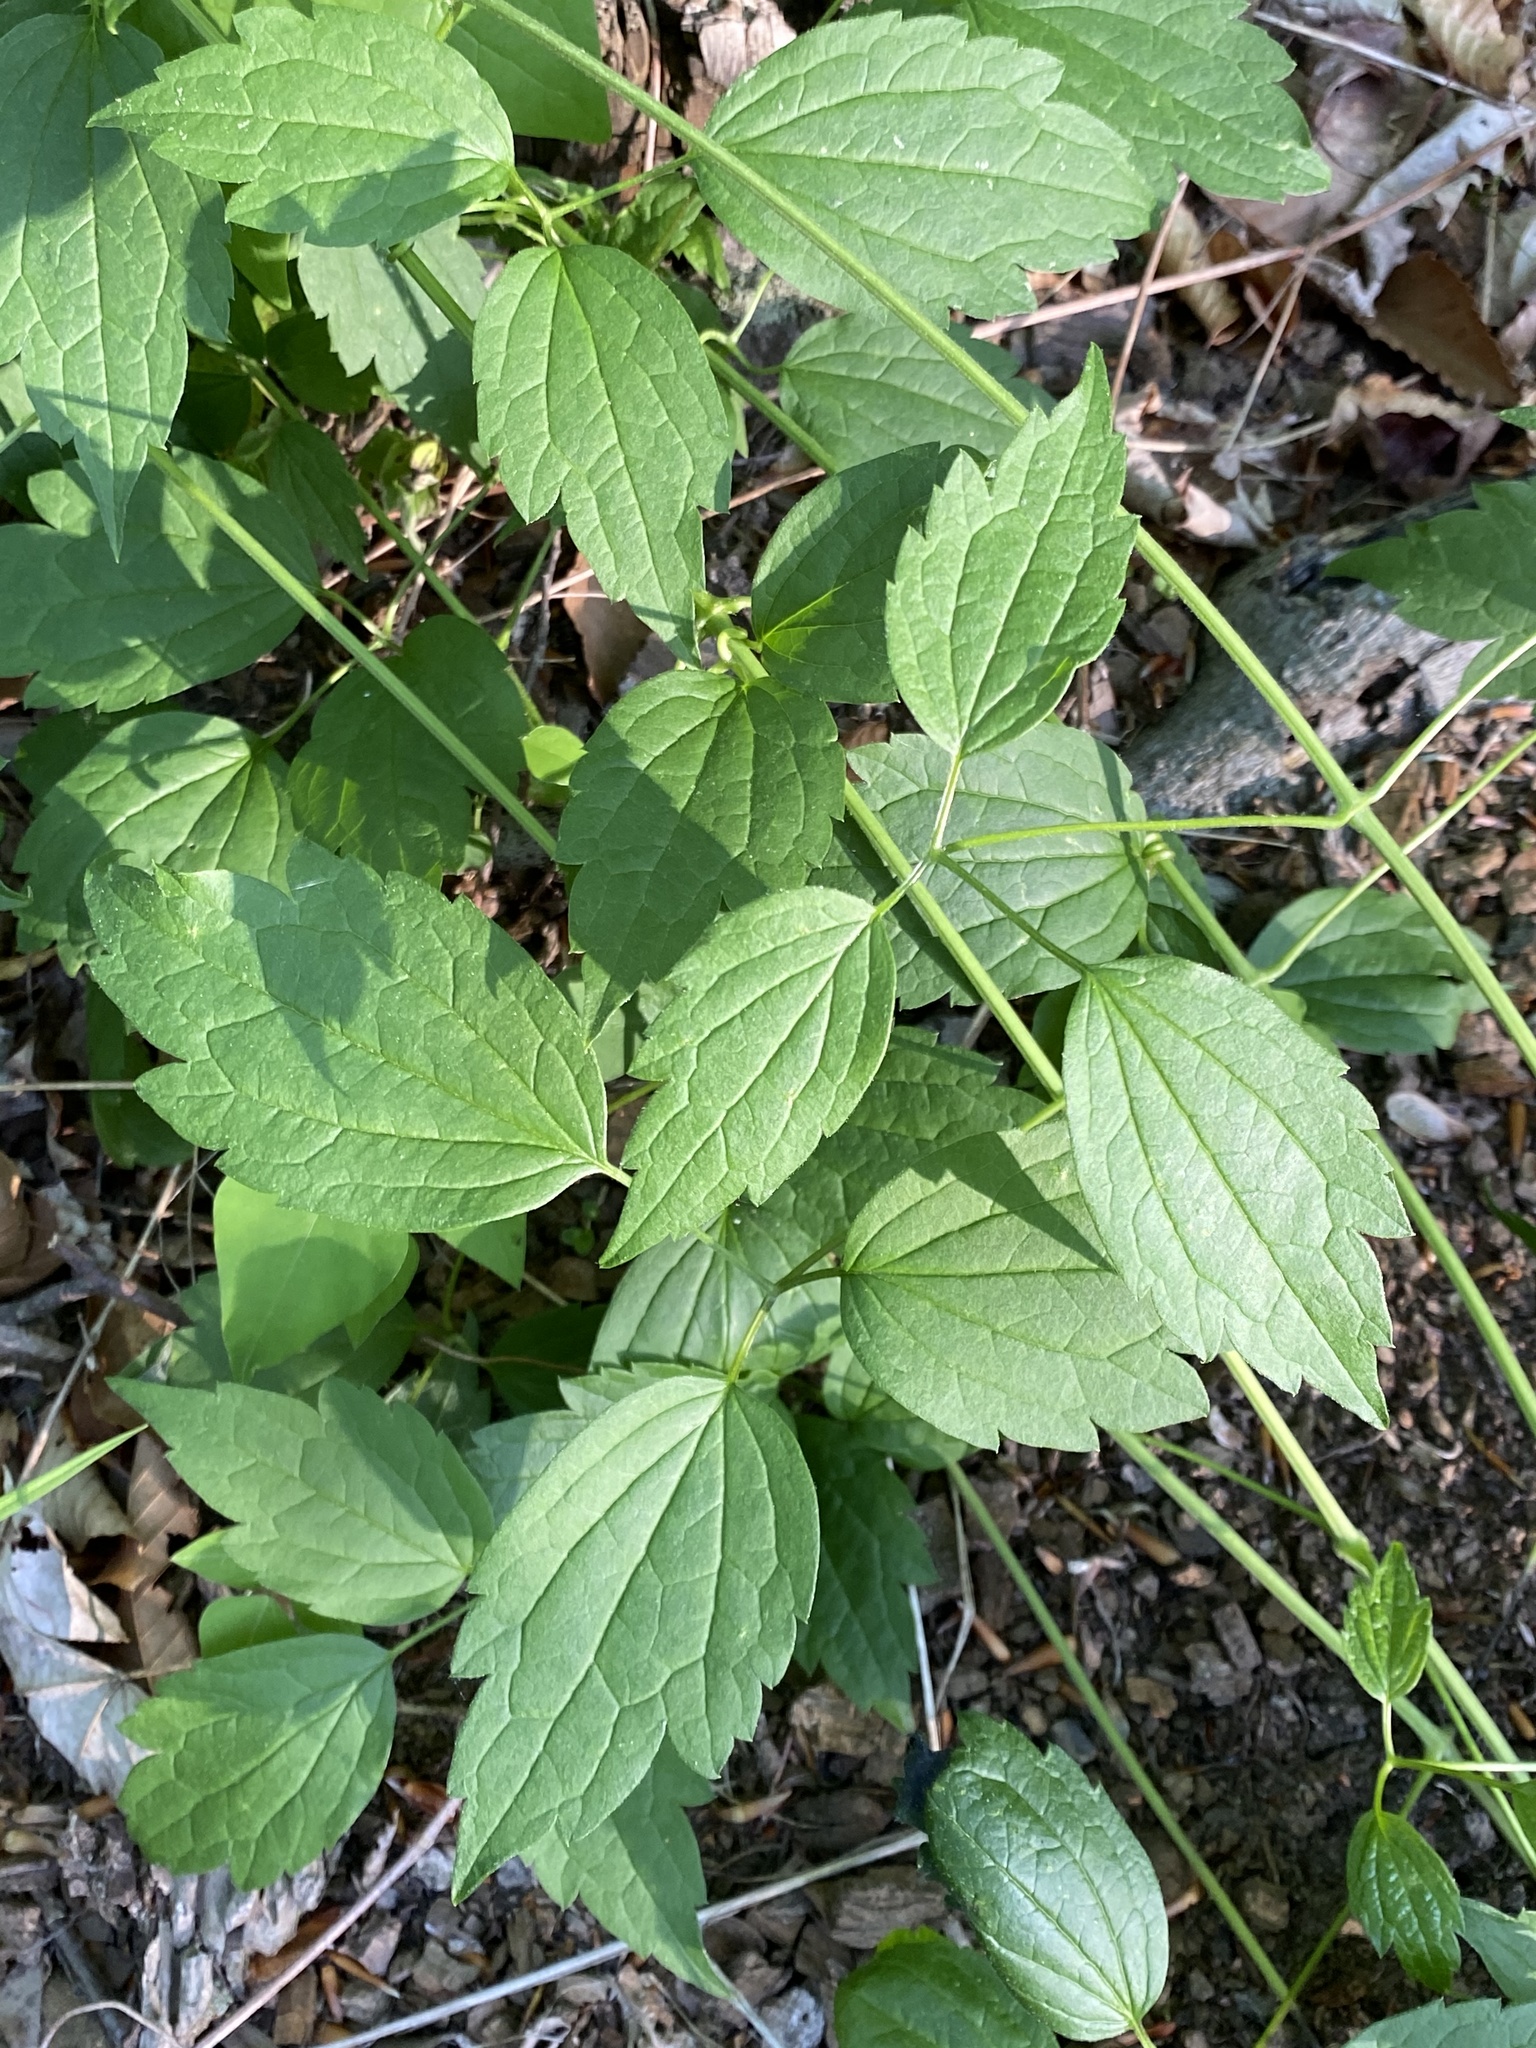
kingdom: Plantae
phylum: Tracheophyta
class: Magnoliopsida
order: Ranunculales
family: Ranunculaceae
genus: Clematis
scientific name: Clematis virginiana
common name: Virgin's-bower
